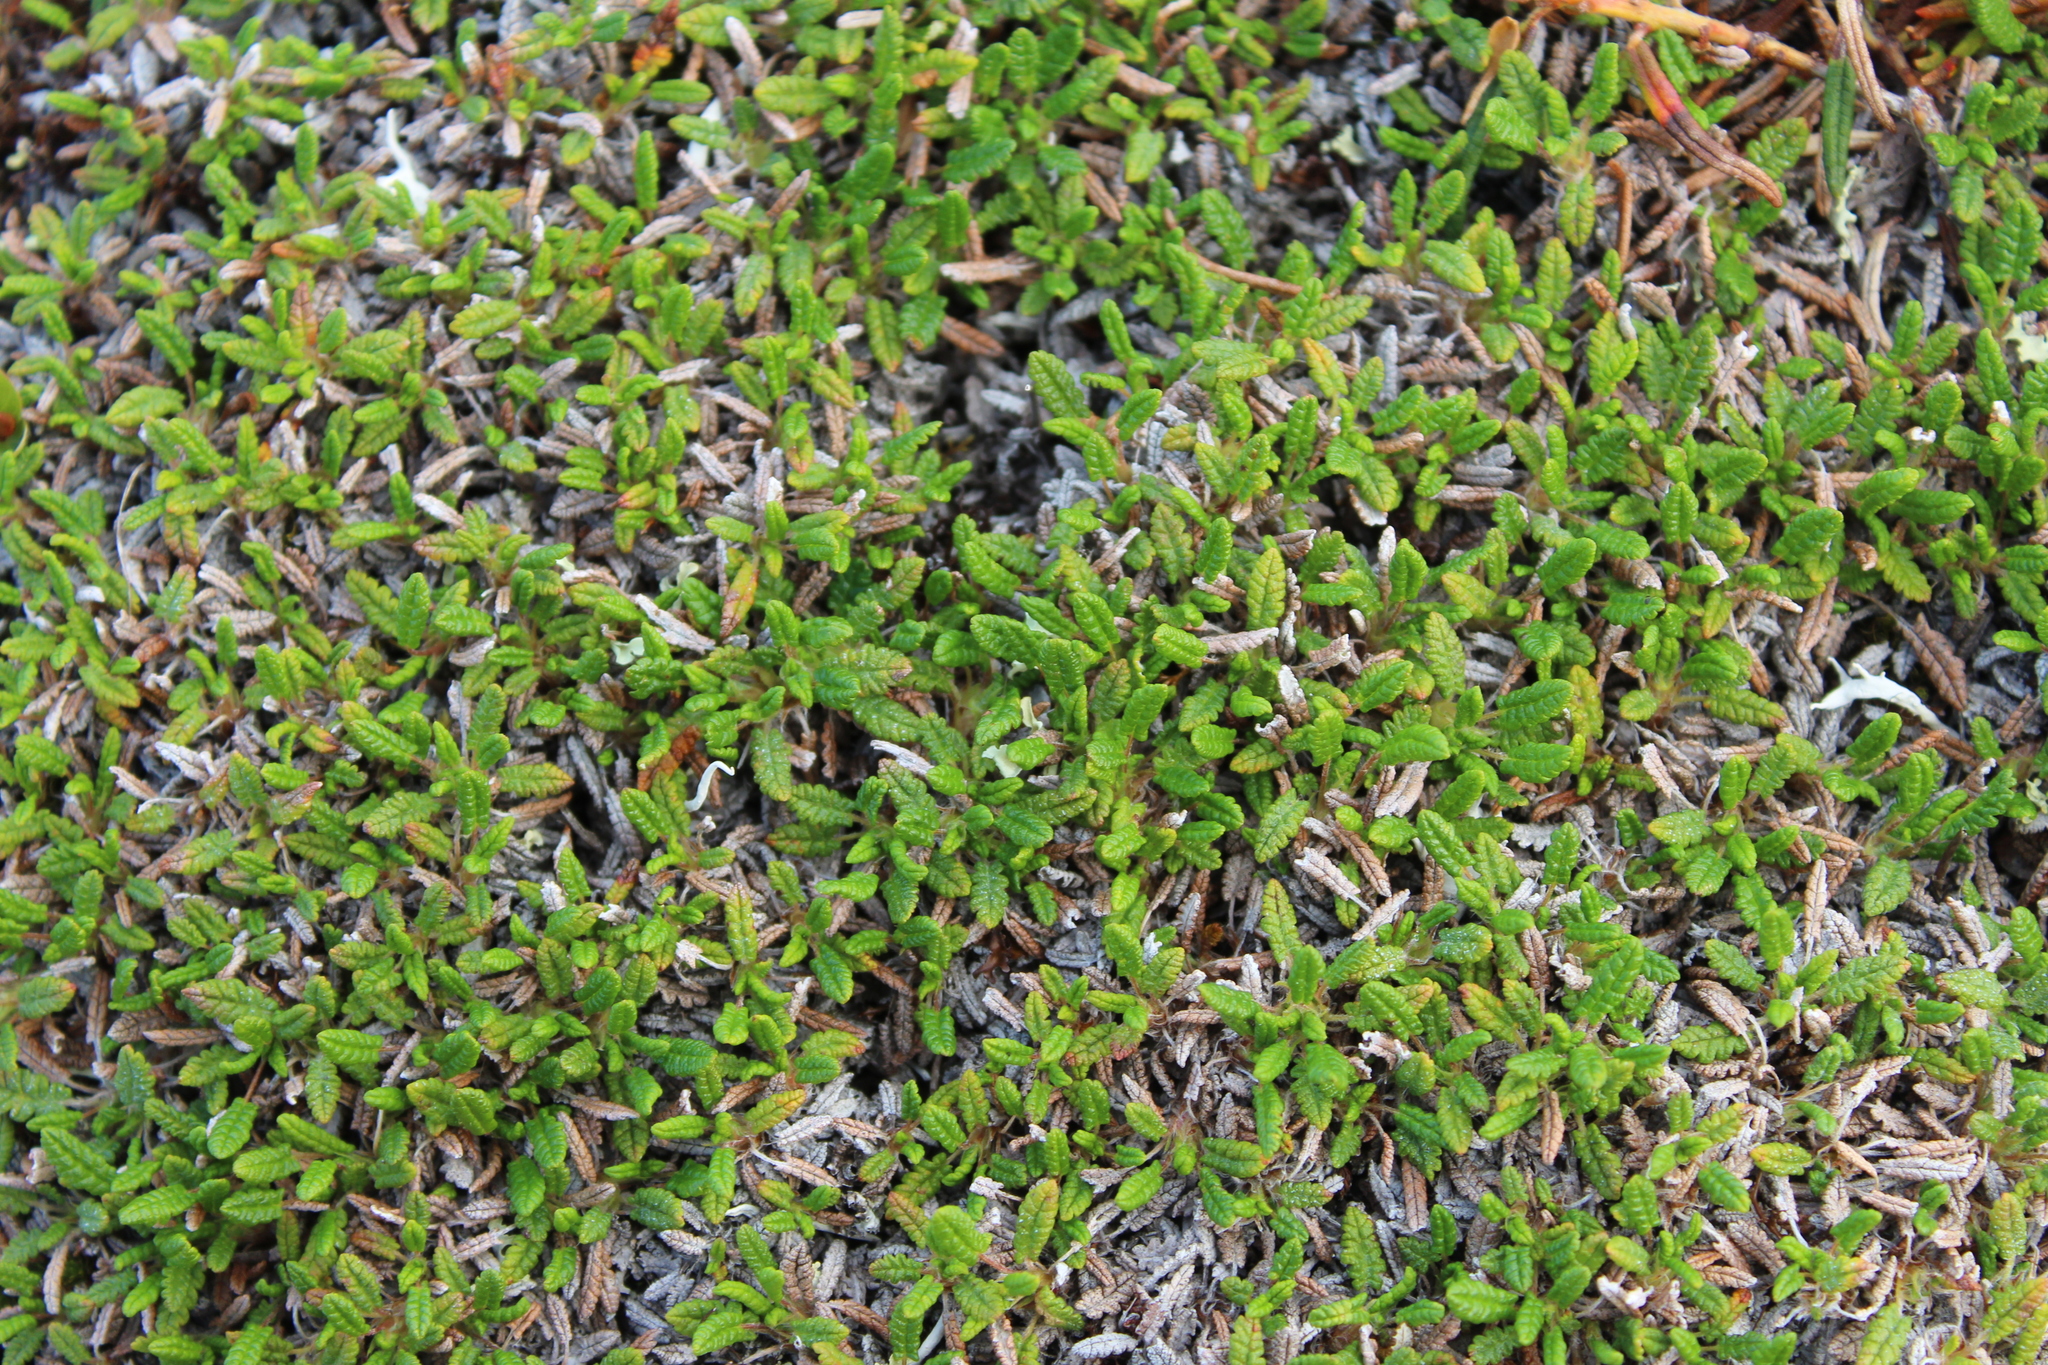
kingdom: Plantae
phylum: Tracheophyta
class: Magnoliopsida
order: Rosales
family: Rosaceae
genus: Dryas
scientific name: Dryas octopetala
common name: Eight-petal mountain-avens
